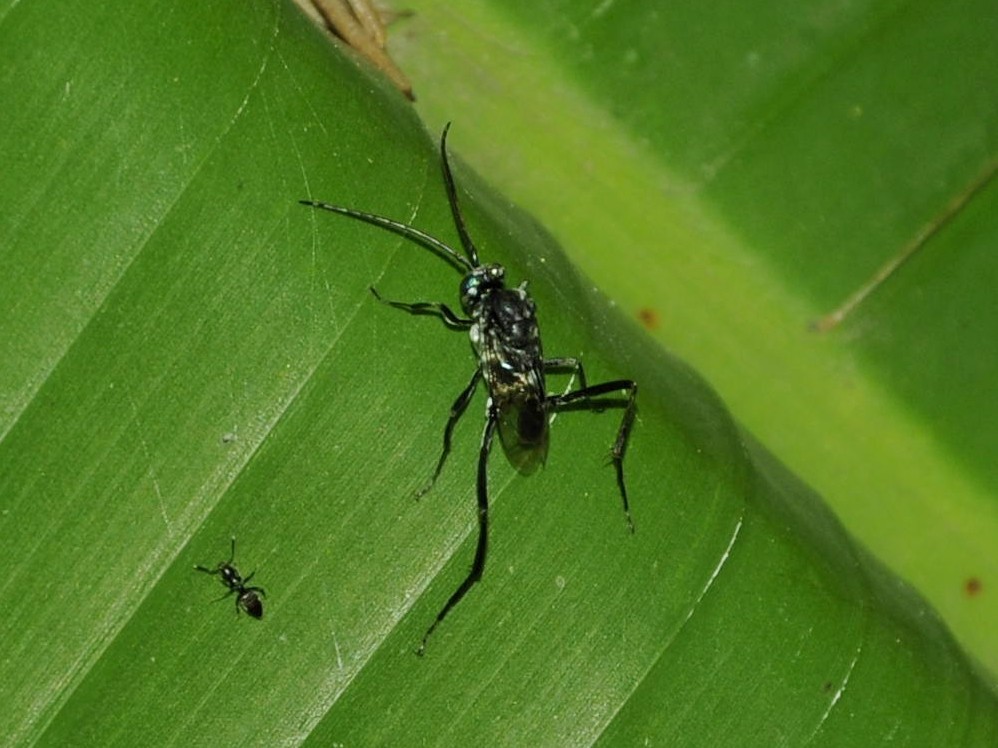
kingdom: Animalia
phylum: Arthropoda
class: Insecta
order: Hymenoptera
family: Evaniidae
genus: Evania
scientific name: Evania appendigaster
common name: Ensign wasp
